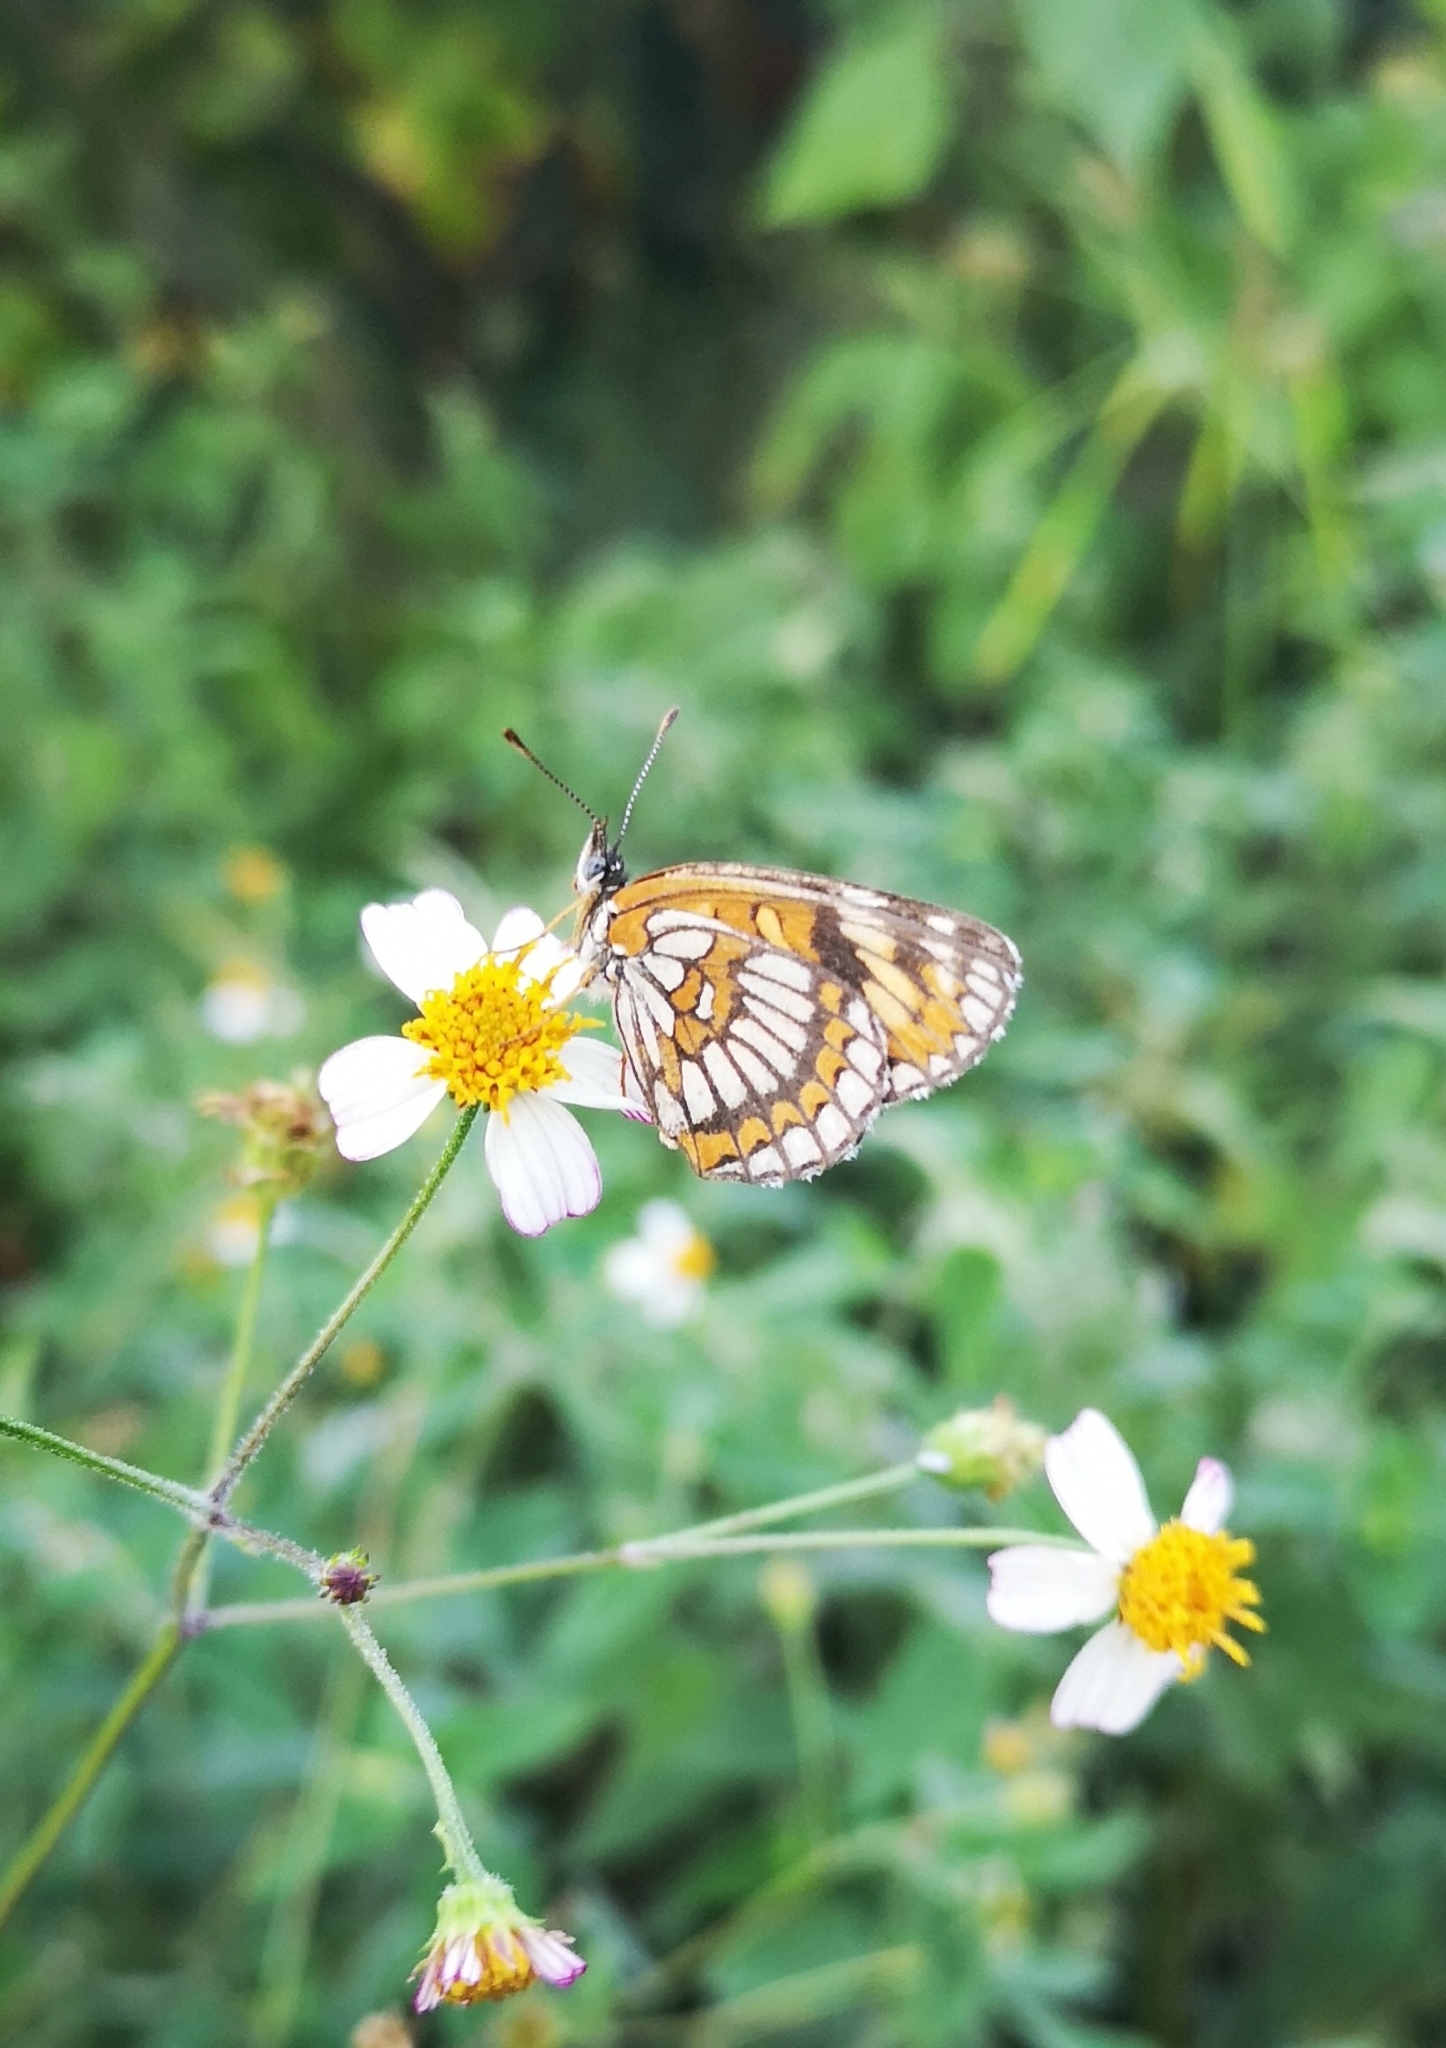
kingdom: Animalia
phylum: Arthropoda
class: Insecta
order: Lepidoptera
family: Nymphalidae
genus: Chlosyne
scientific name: Chlosyne
